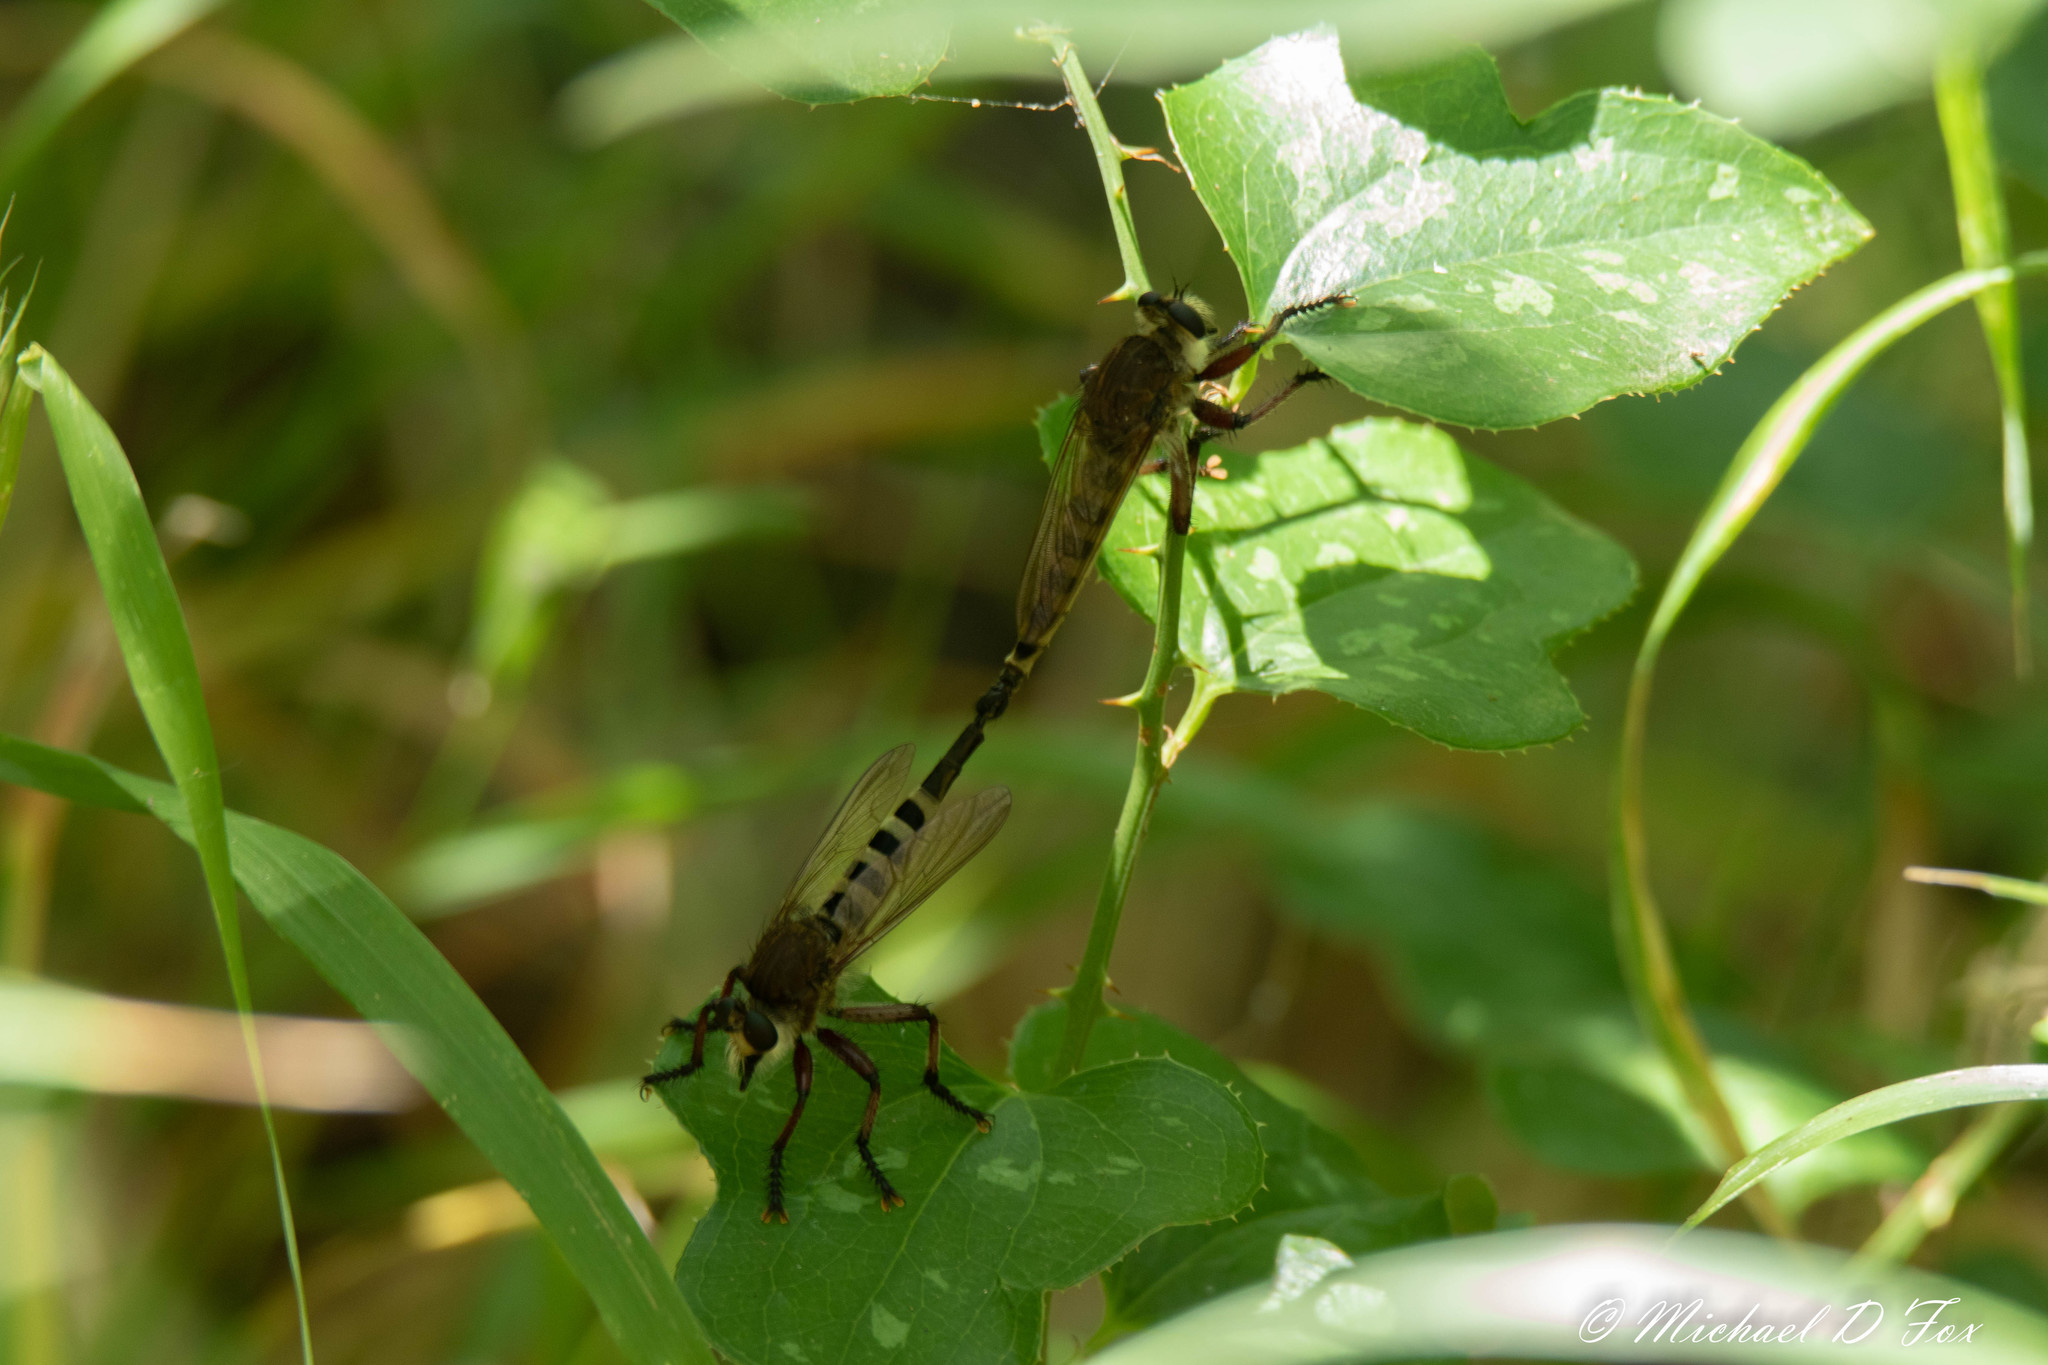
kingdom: Animalia
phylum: Arthropoda
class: Insecta
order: Diptera
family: Asilidae
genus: Promachus
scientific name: Promachus hinei
